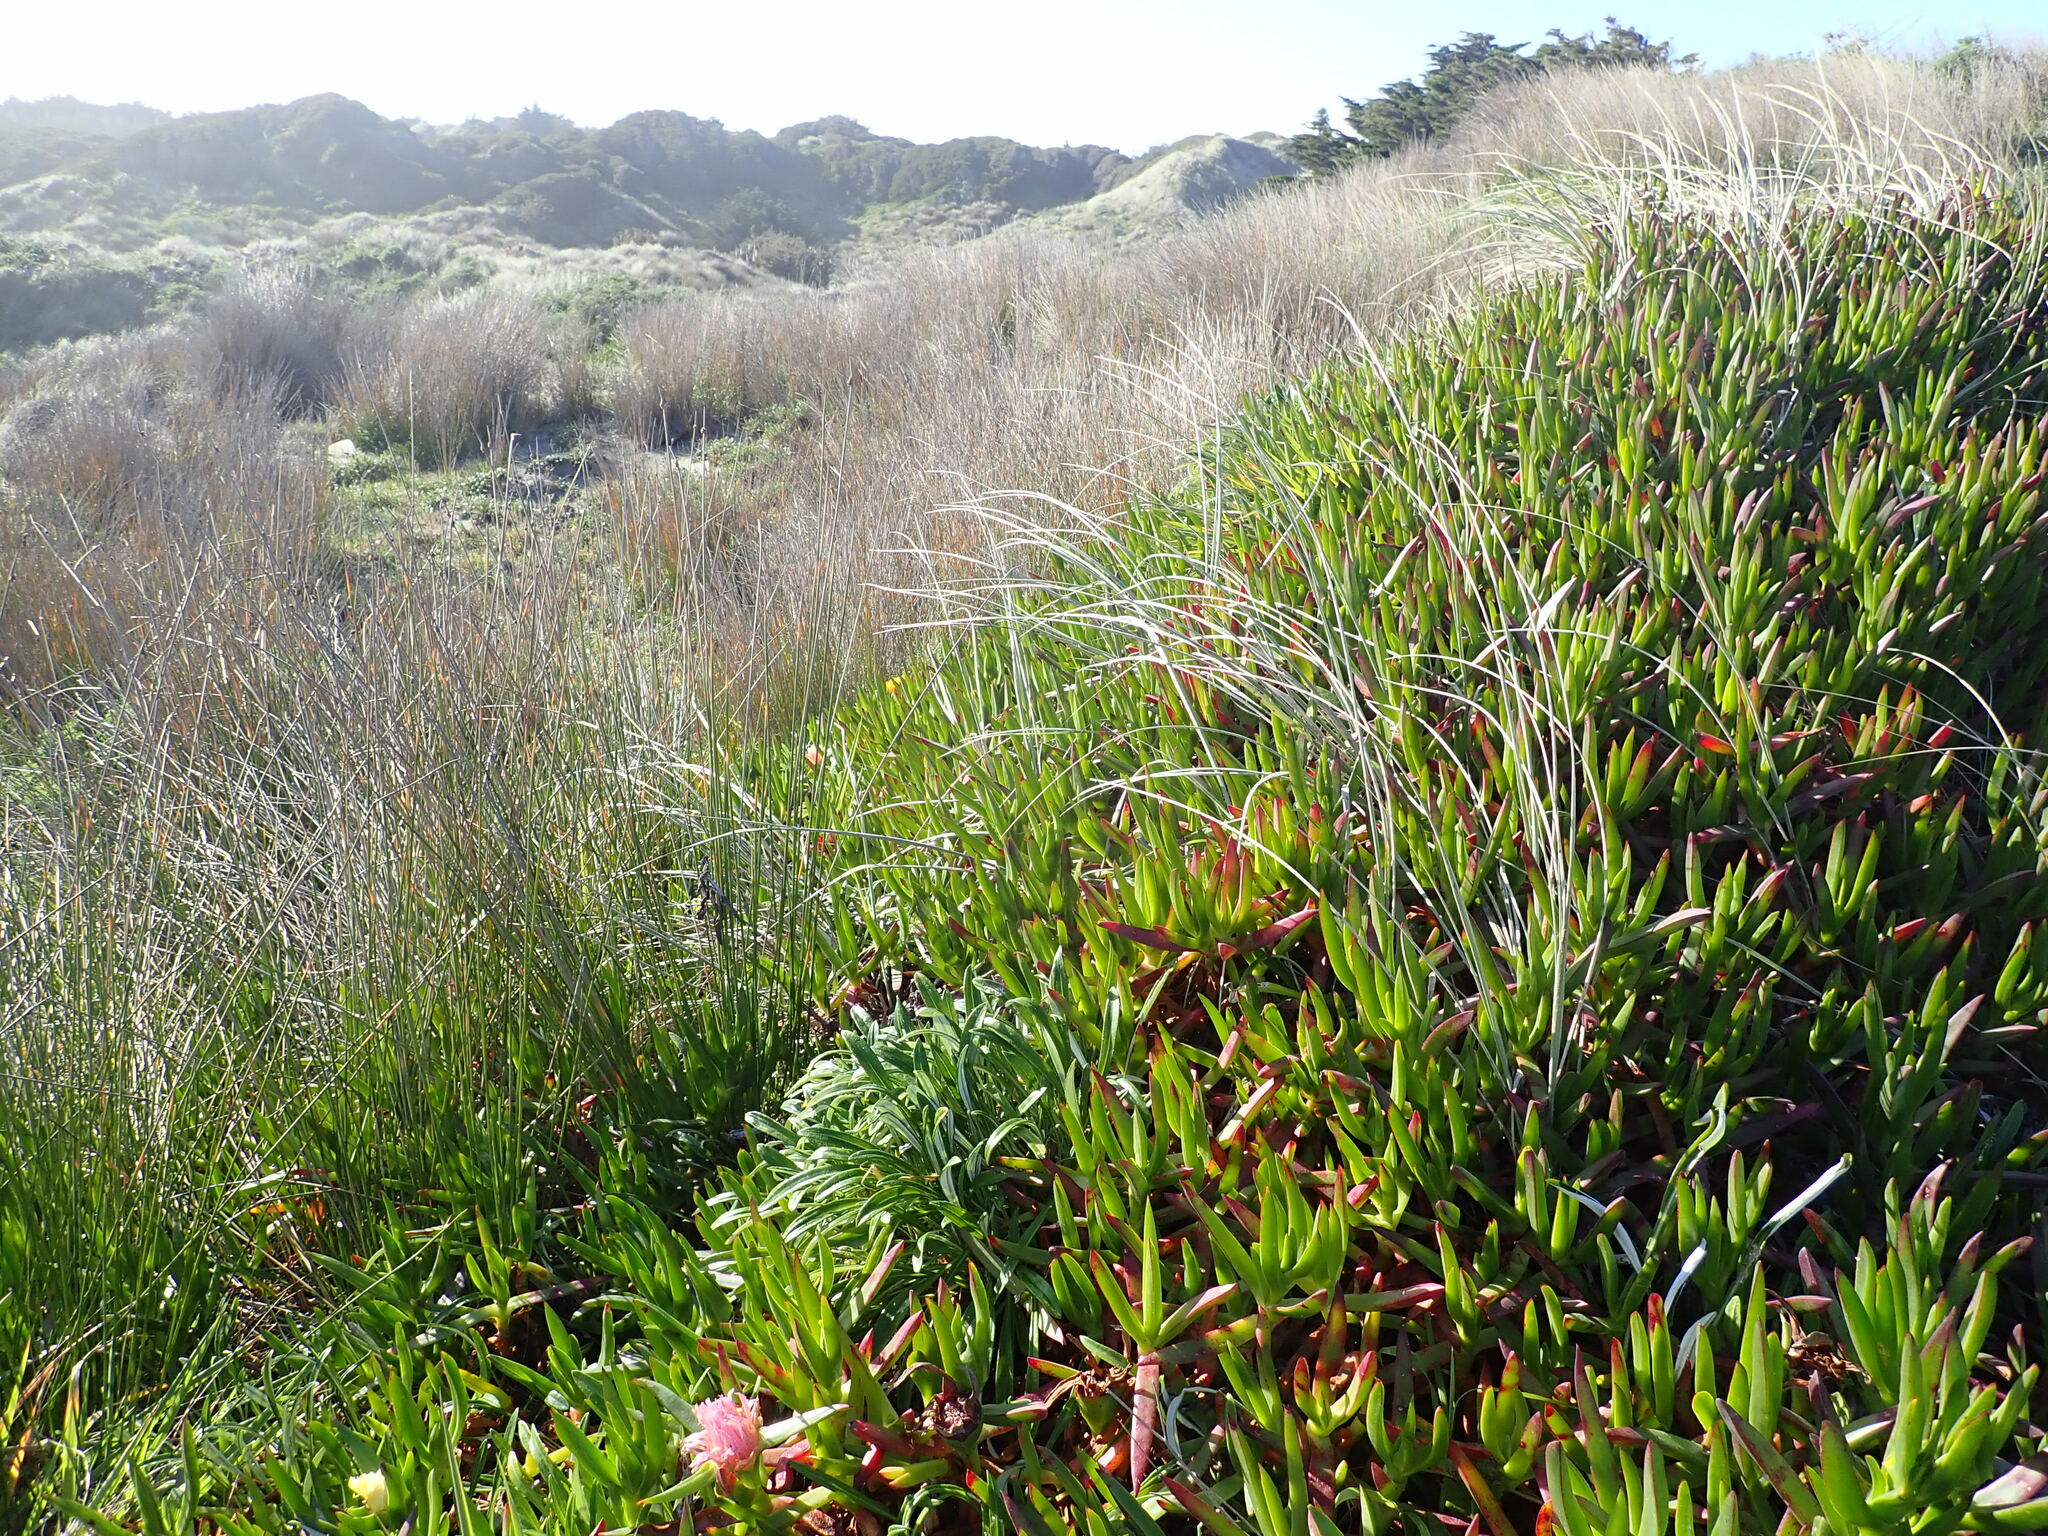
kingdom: Plantae
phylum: Tracheophyta
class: Magnoliopsida
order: Caryophyllales
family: Aizoaceae
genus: Carpobrotus
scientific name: Carpobrotus edulis
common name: Hottentot-fig
